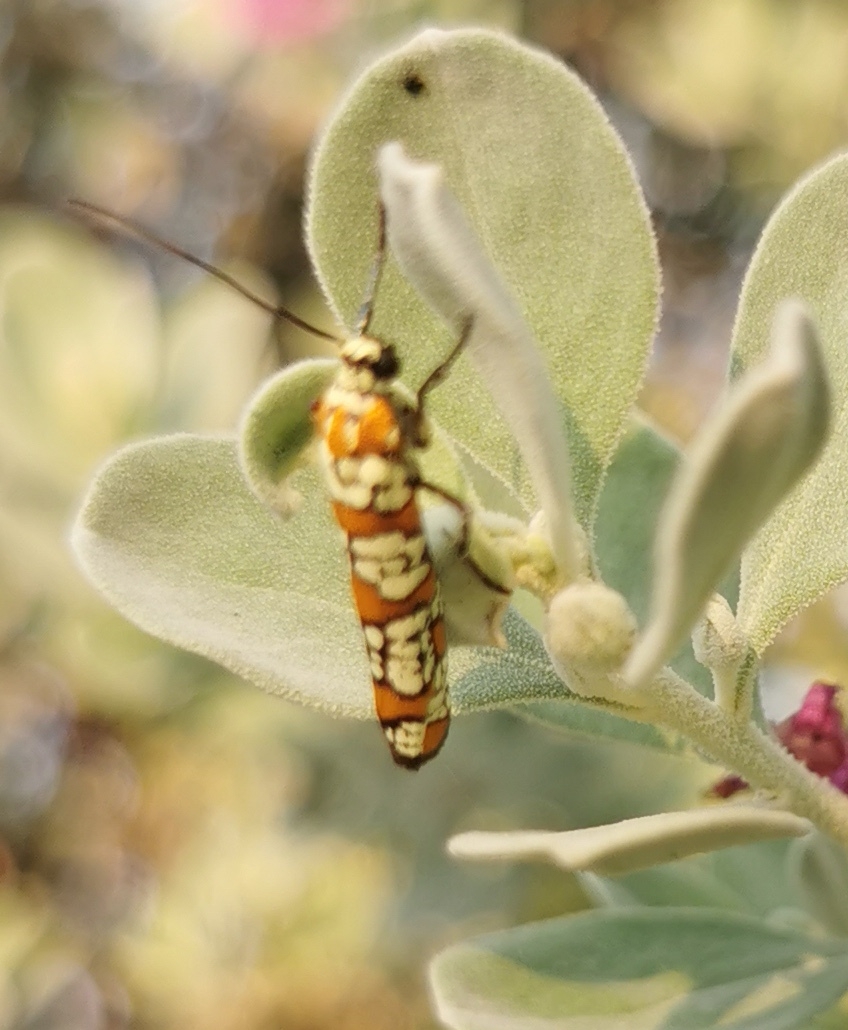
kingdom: Animalia
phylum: Arthropoda
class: Insecta
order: Lepidoptera
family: Attevidae
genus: Atteva
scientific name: Atteva punctella
